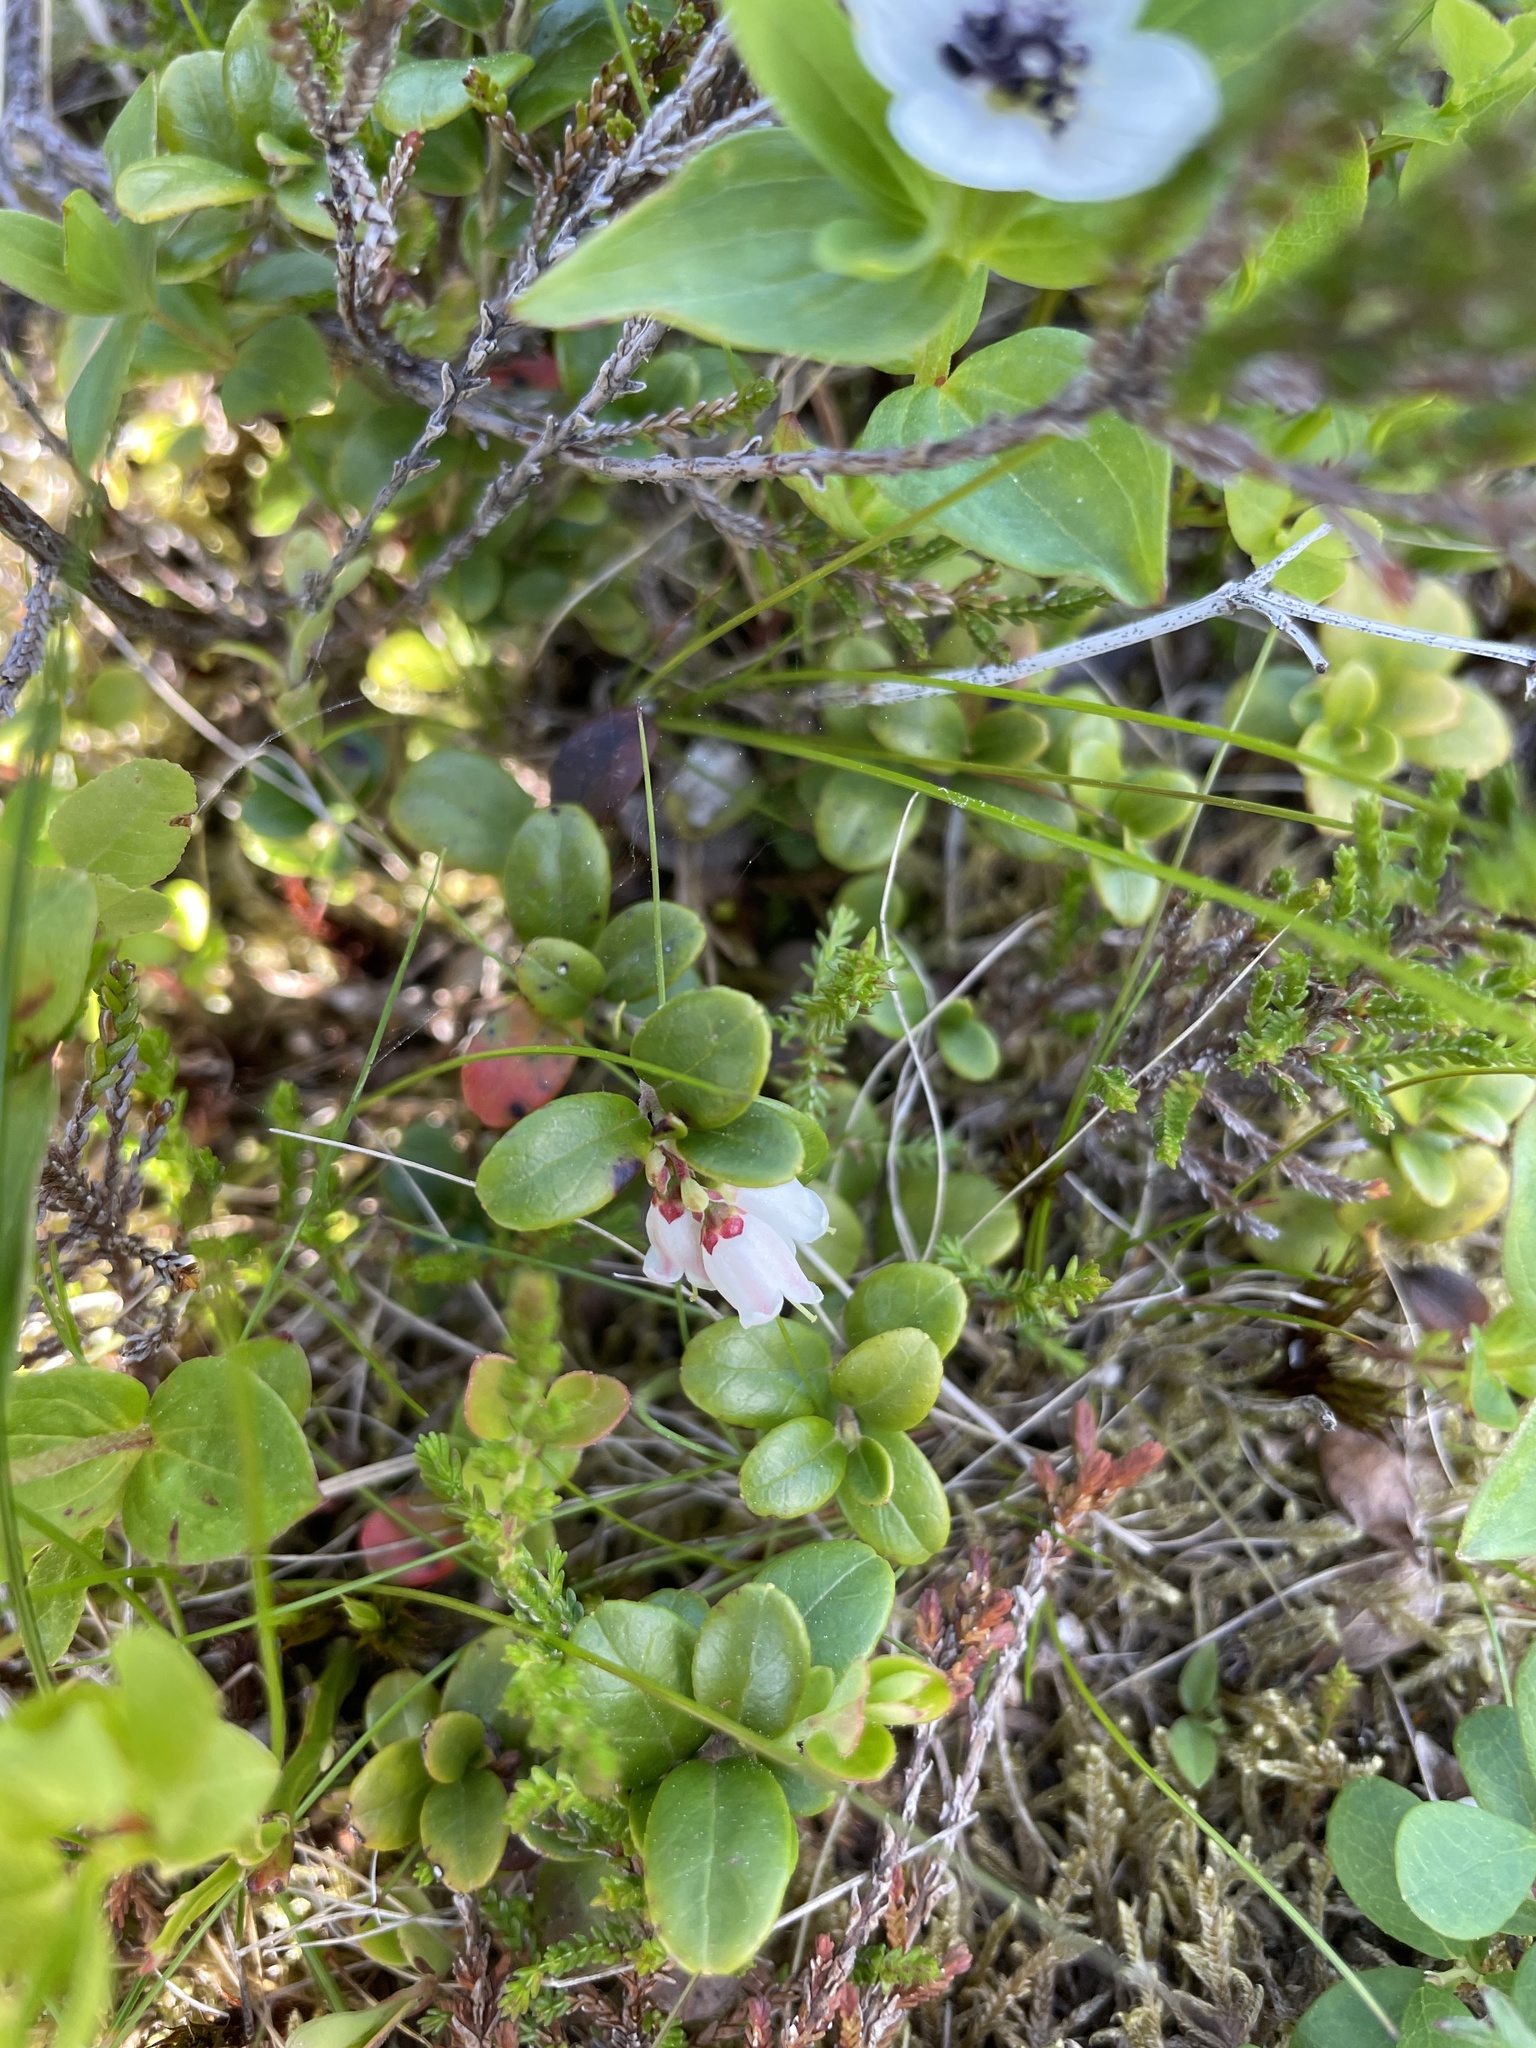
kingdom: Plantae
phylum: Tracheophyta
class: Magnoliopsida
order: Ericales
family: Ericaceae
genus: Vaccinium
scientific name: Vaccinium vitis-idaea
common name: Cowberry
